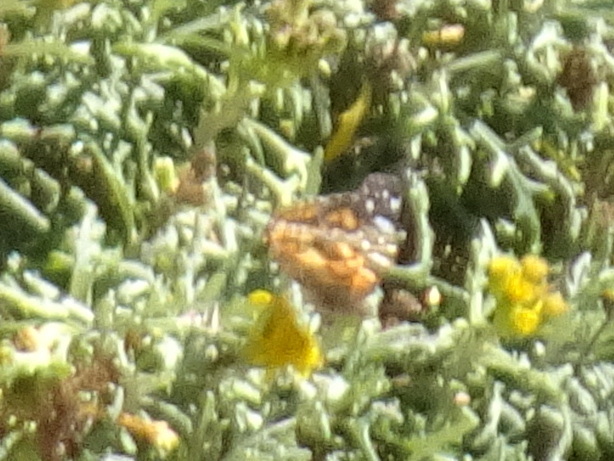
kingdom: Animalia
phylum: Arthropoda
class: Insecta
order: Lepidoptera
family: Nymphalidae
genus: Vanessa
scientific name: Vanessa virginiensis
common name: American lady
